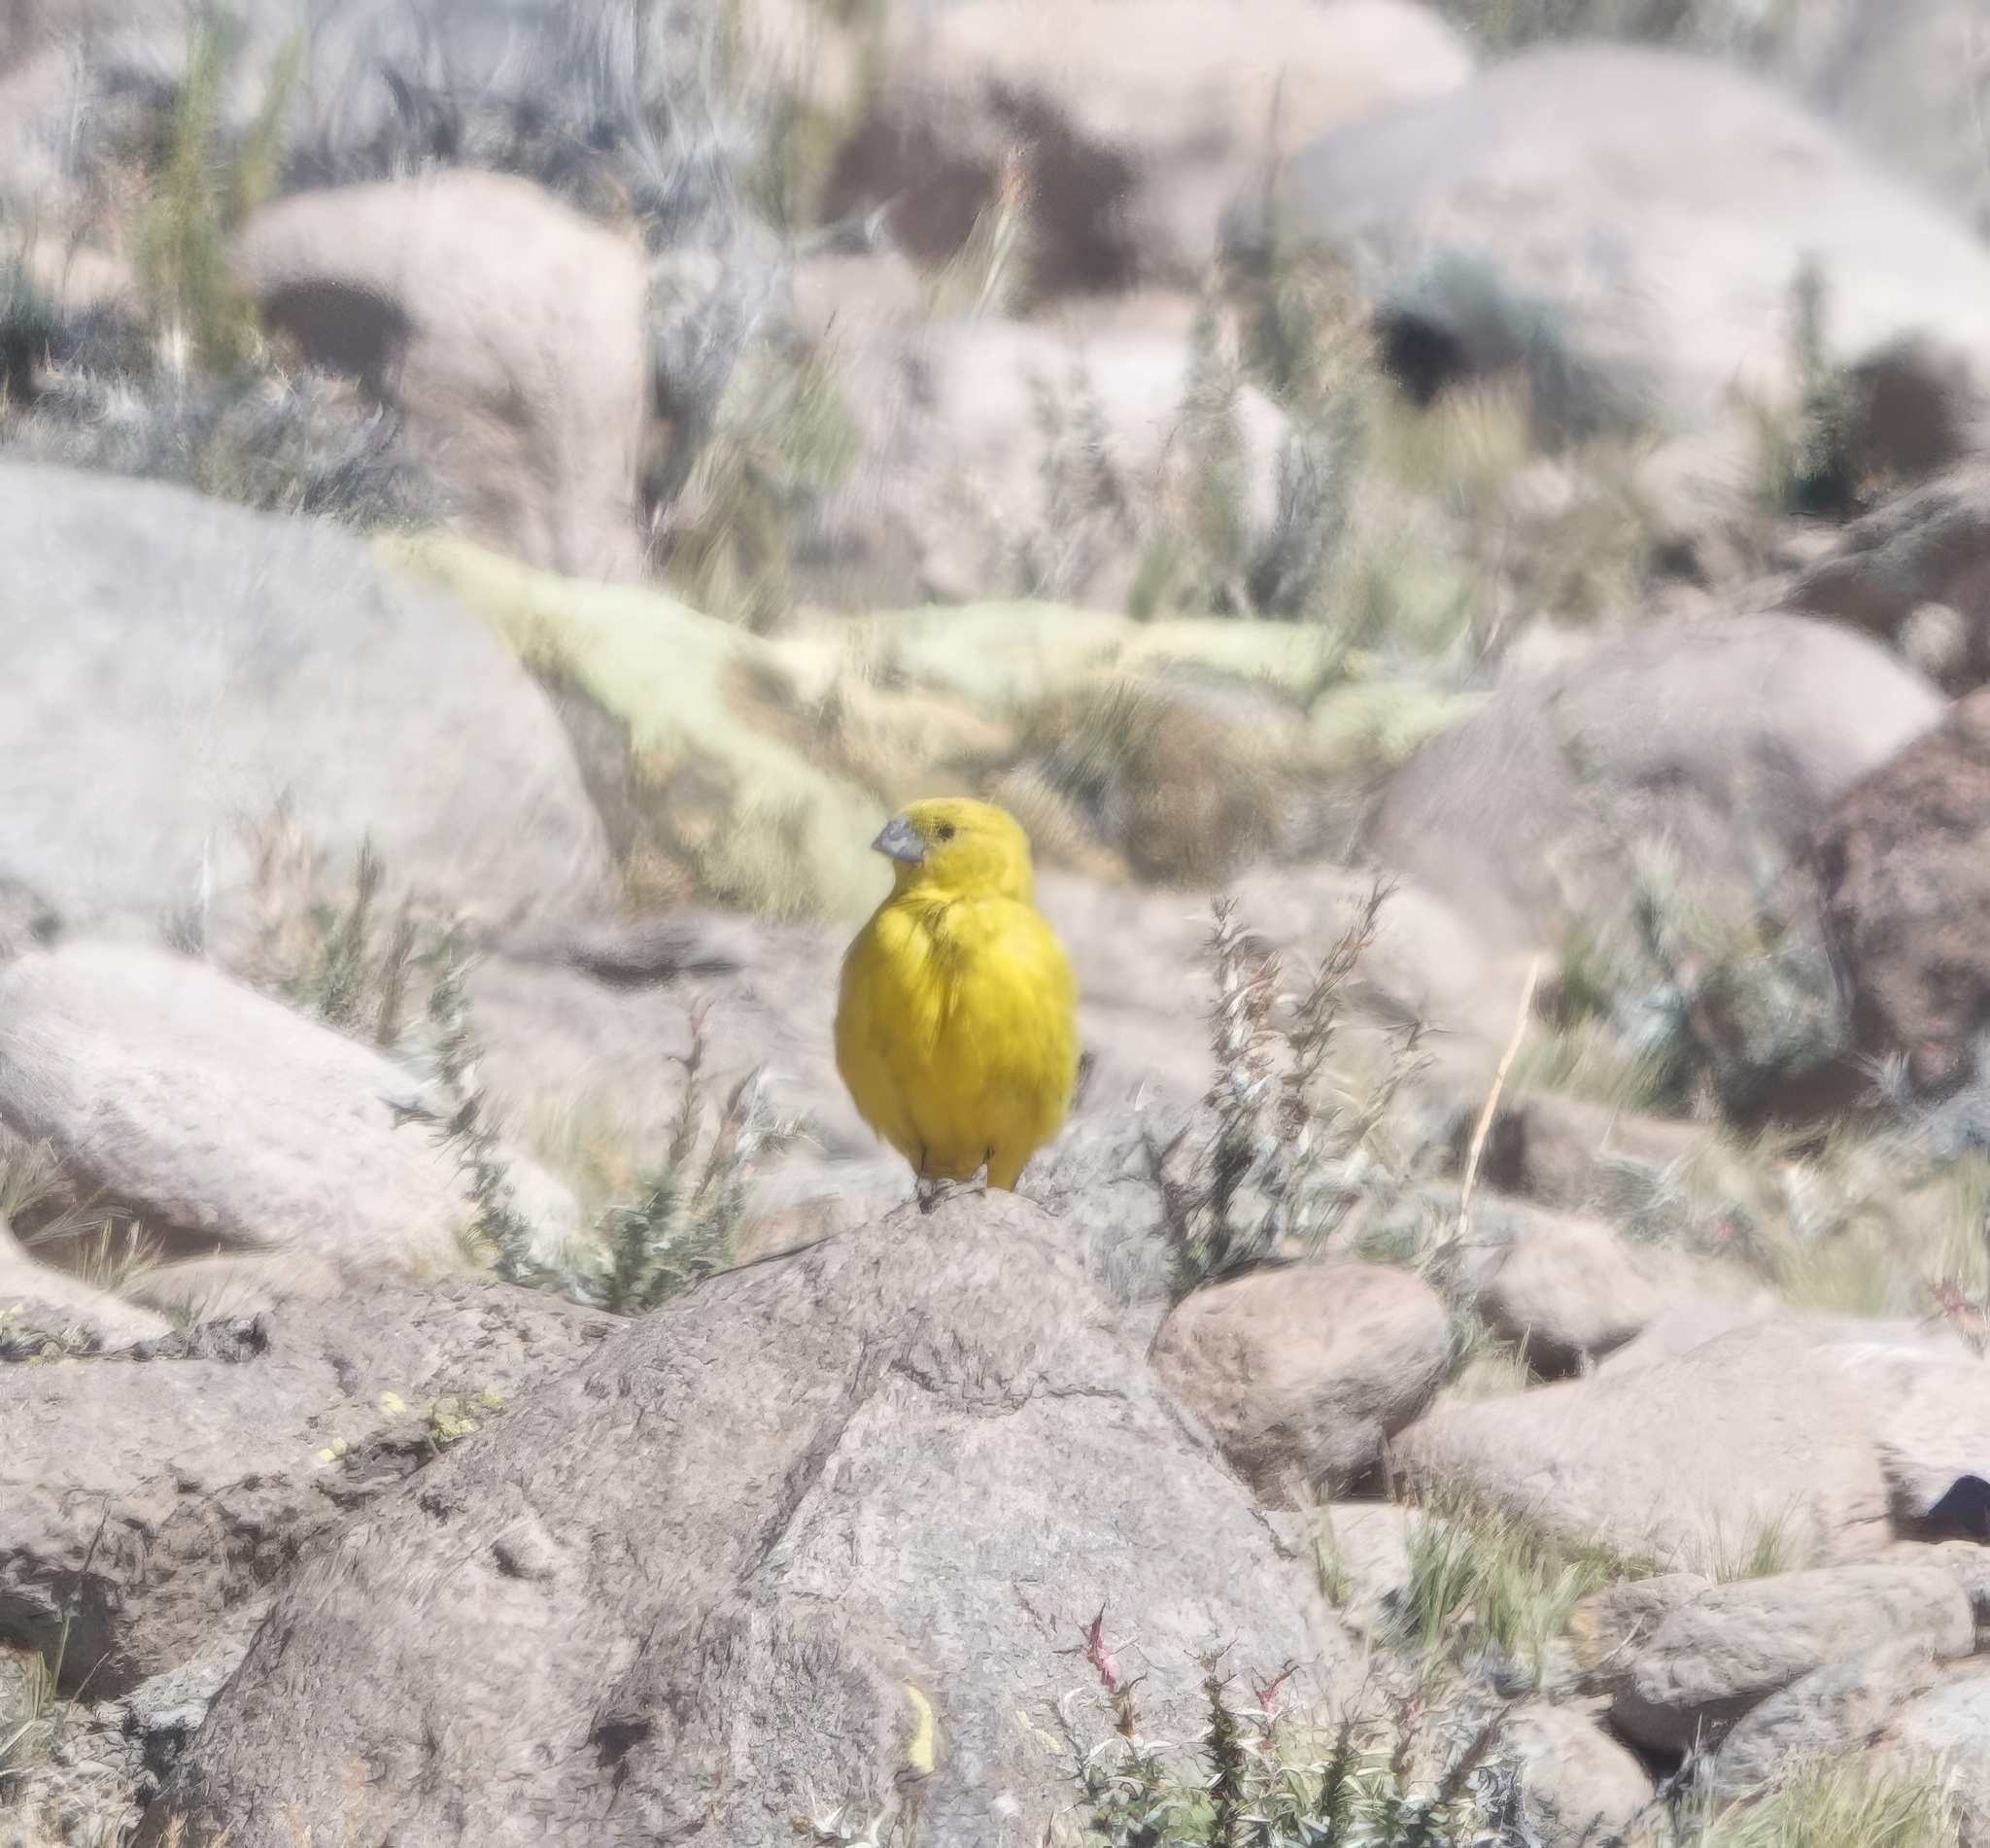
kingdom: Animalia
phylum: Chordata
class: Aves
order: Passeriformes
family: Thraupidae
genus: Sicalis
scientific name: Sicalis lutea
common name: Puna yellow finch
